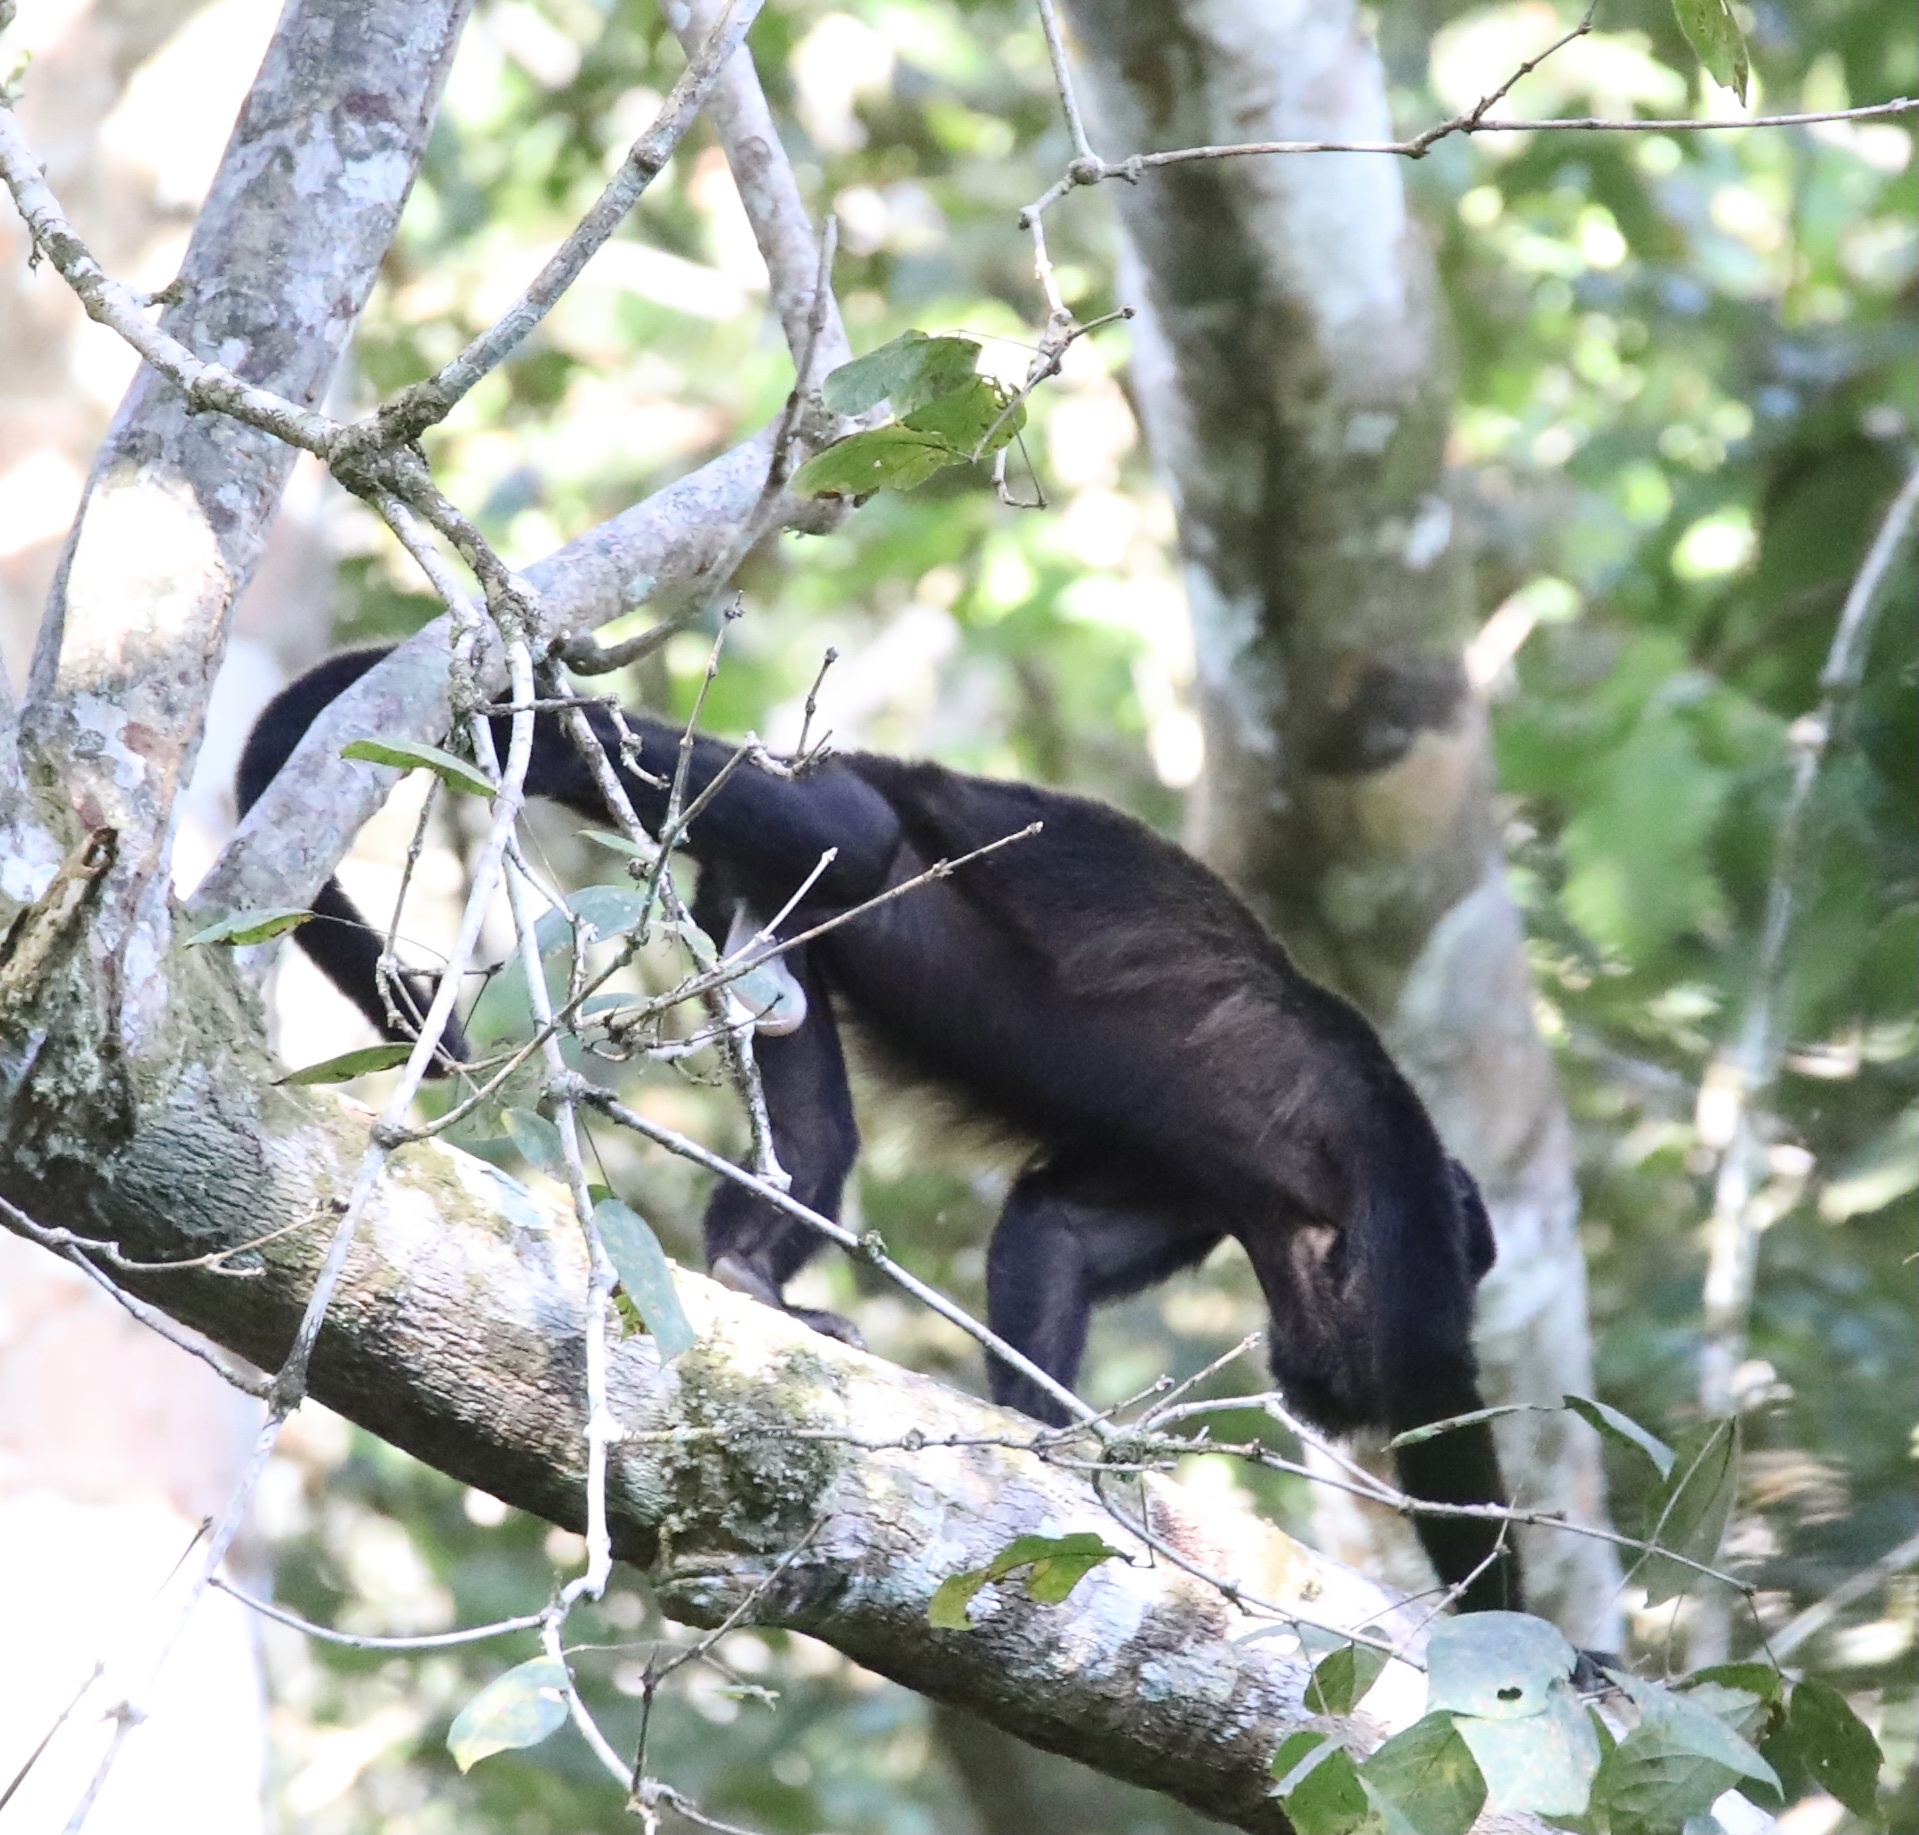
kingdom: Animalia
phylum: Chordata
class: Mammalia
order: Primates
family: Atelidae
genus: Alouatta
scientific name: Alouatta palliata
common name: Mantled howler
